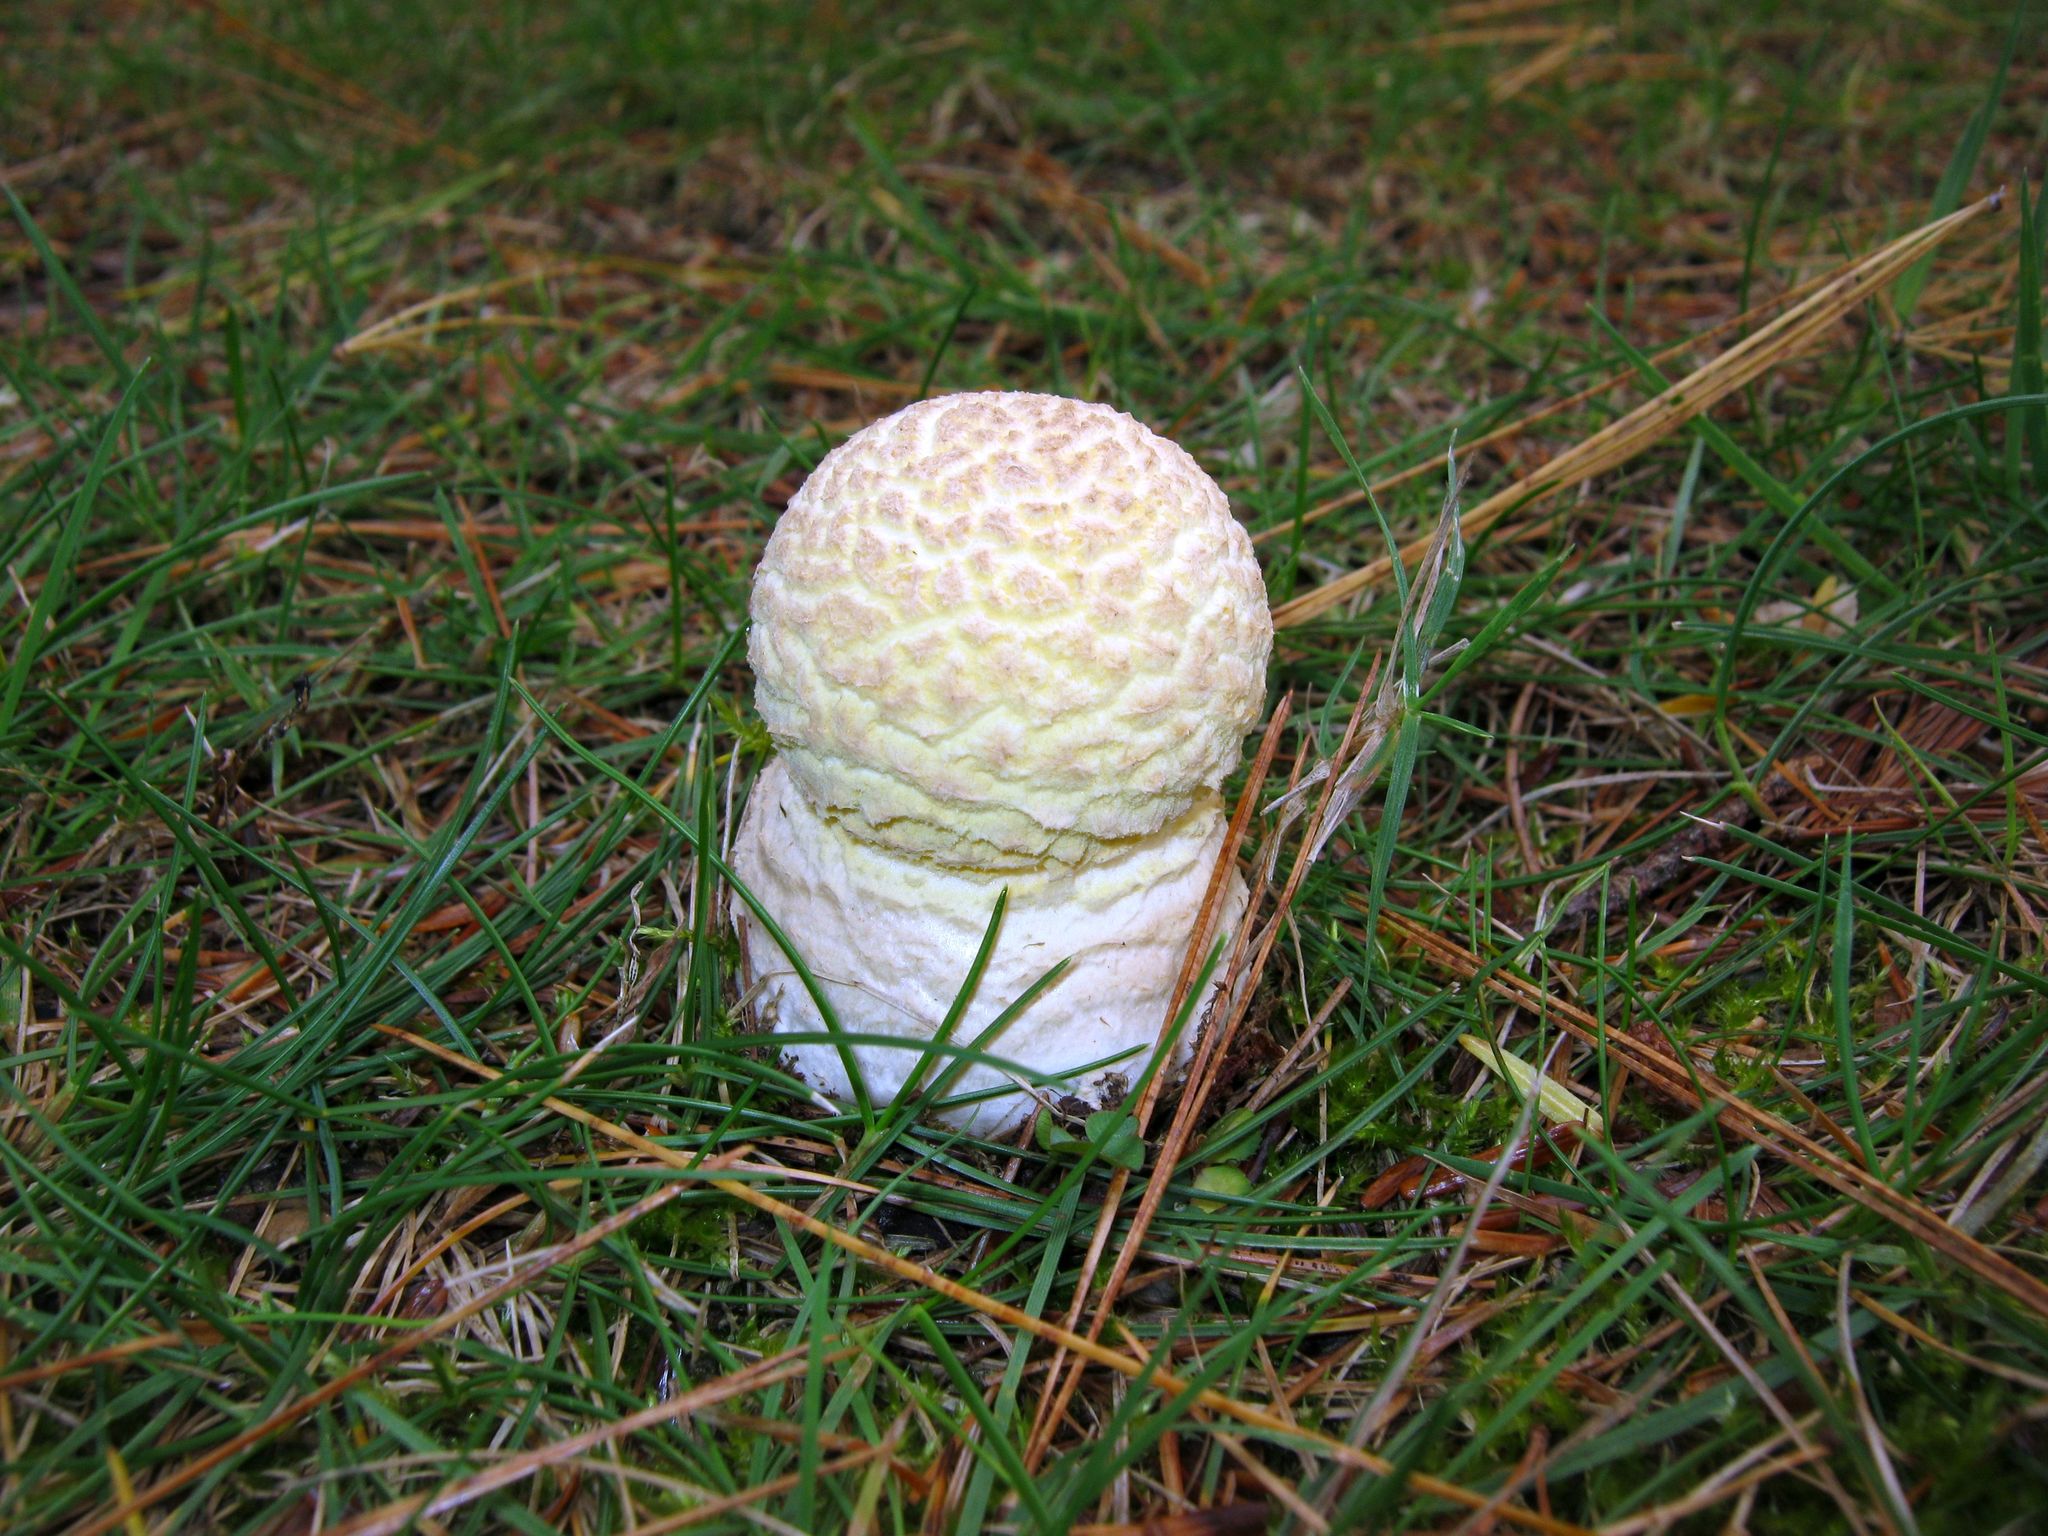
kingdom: Fungi
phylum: Basidiomycota
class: Agaricomycetes
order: Agaricales
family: Amanitaceae
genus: Amanita
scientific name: Amanita muscaria
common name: Fly agaric
